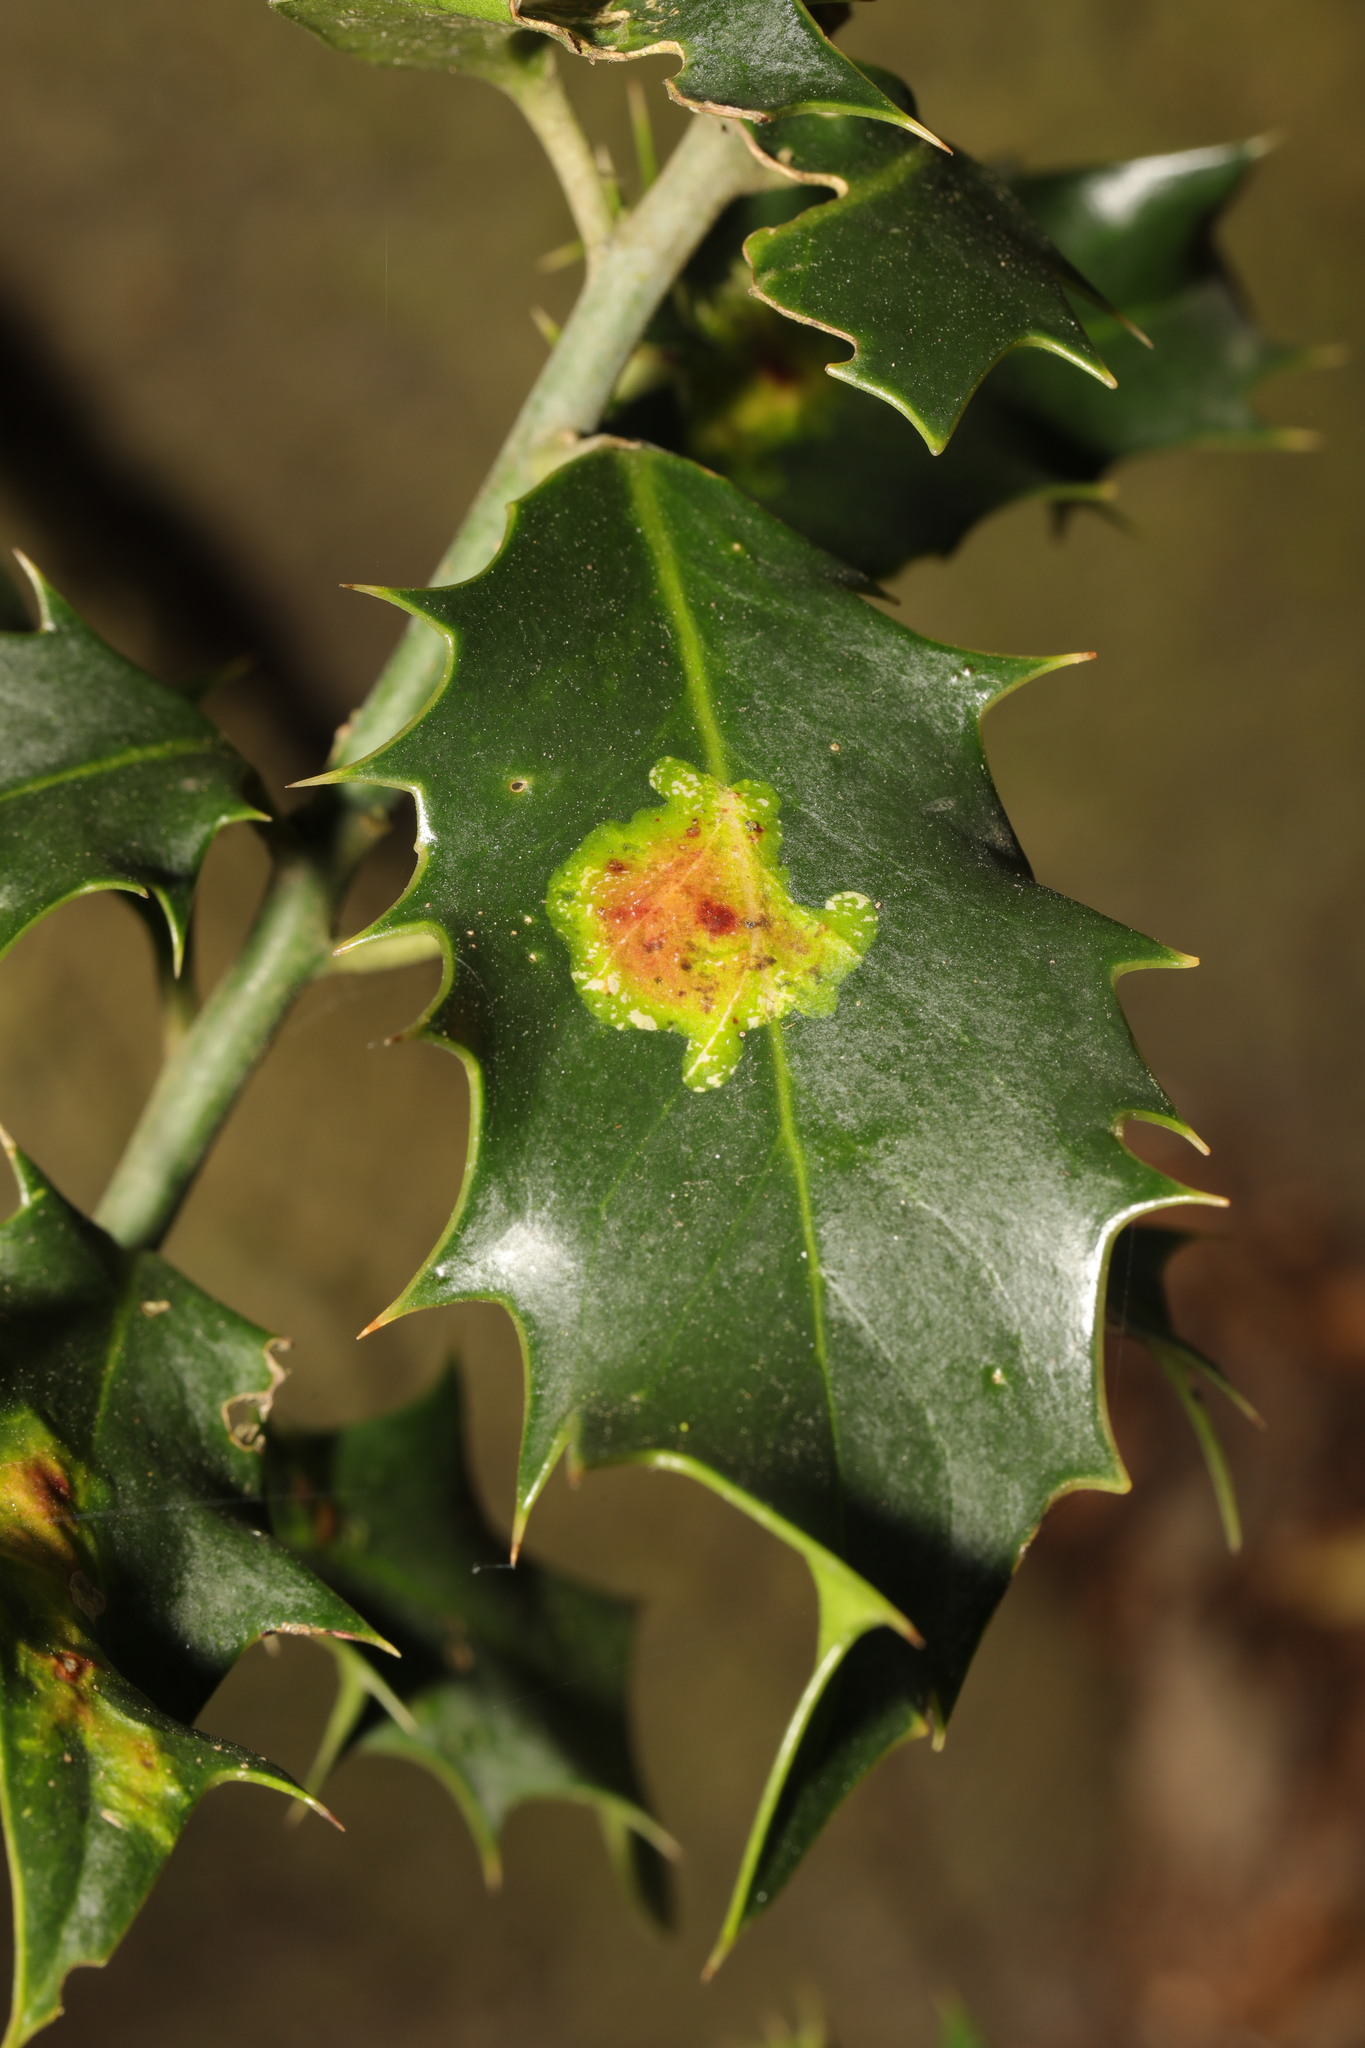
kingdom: Animalia
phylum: Arthropoda
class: Insecta
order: Diptera
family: Agromyzidae
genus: Phytomyza
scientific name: Phytomyza ilicis
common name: Holly leafminer
